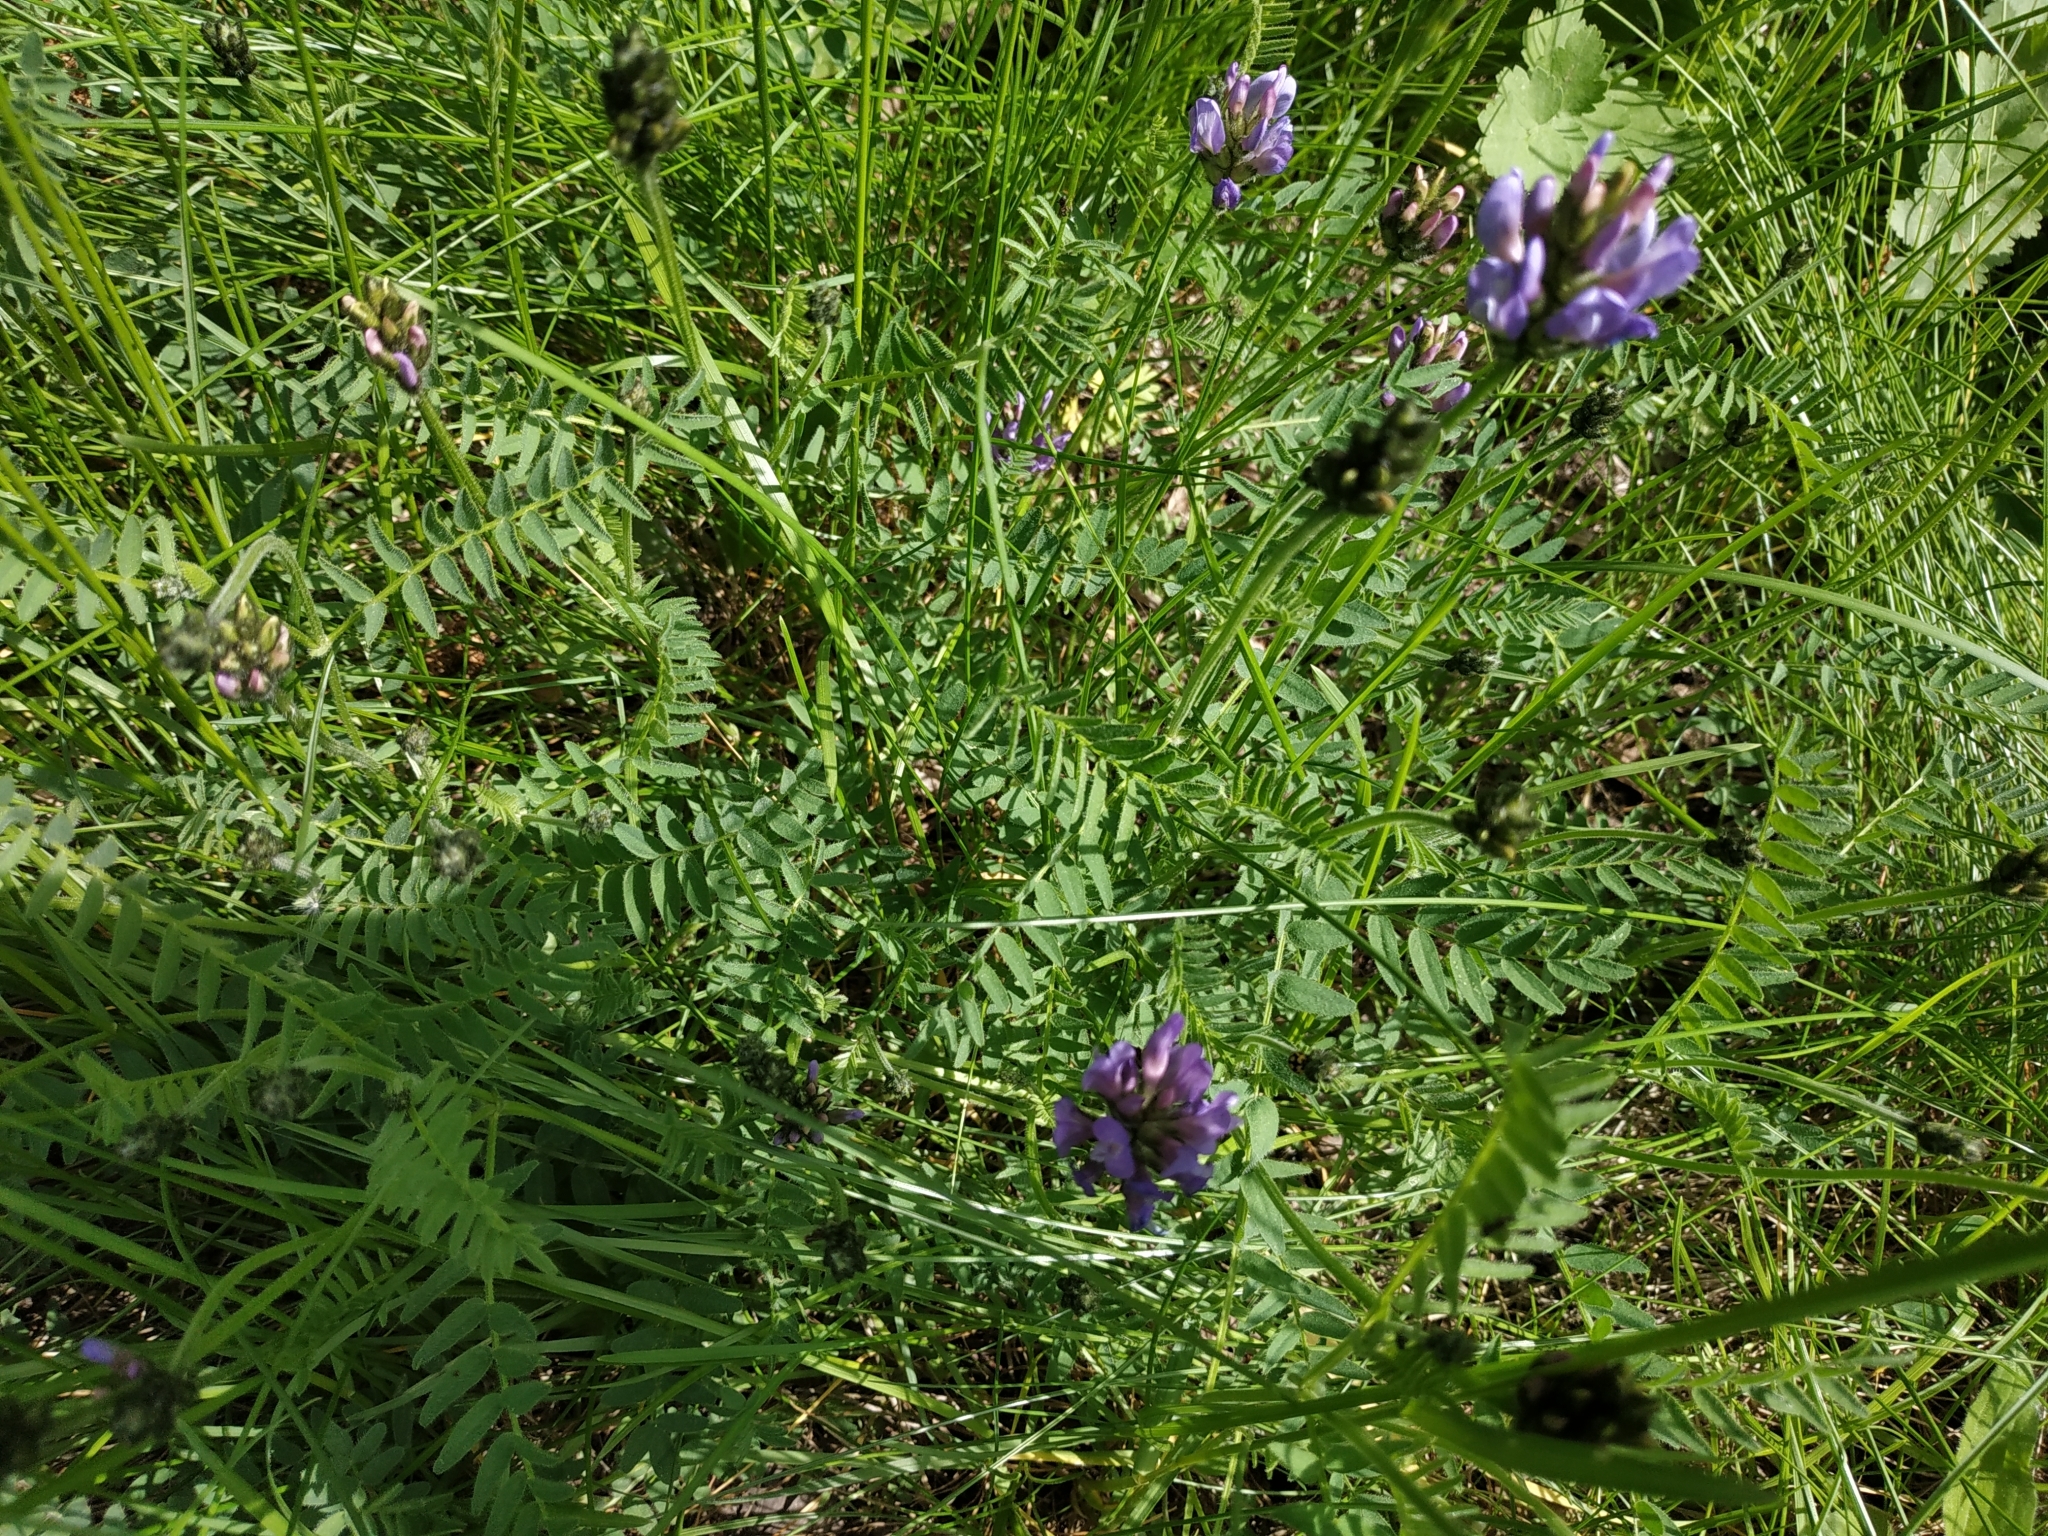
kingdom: Plantae
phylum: Tracheophyta
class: Magnoliopsida
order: Fabales
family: Fabaceae
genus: Astragalus
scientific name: Astragalus danicus
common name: Purple milk-vetch
